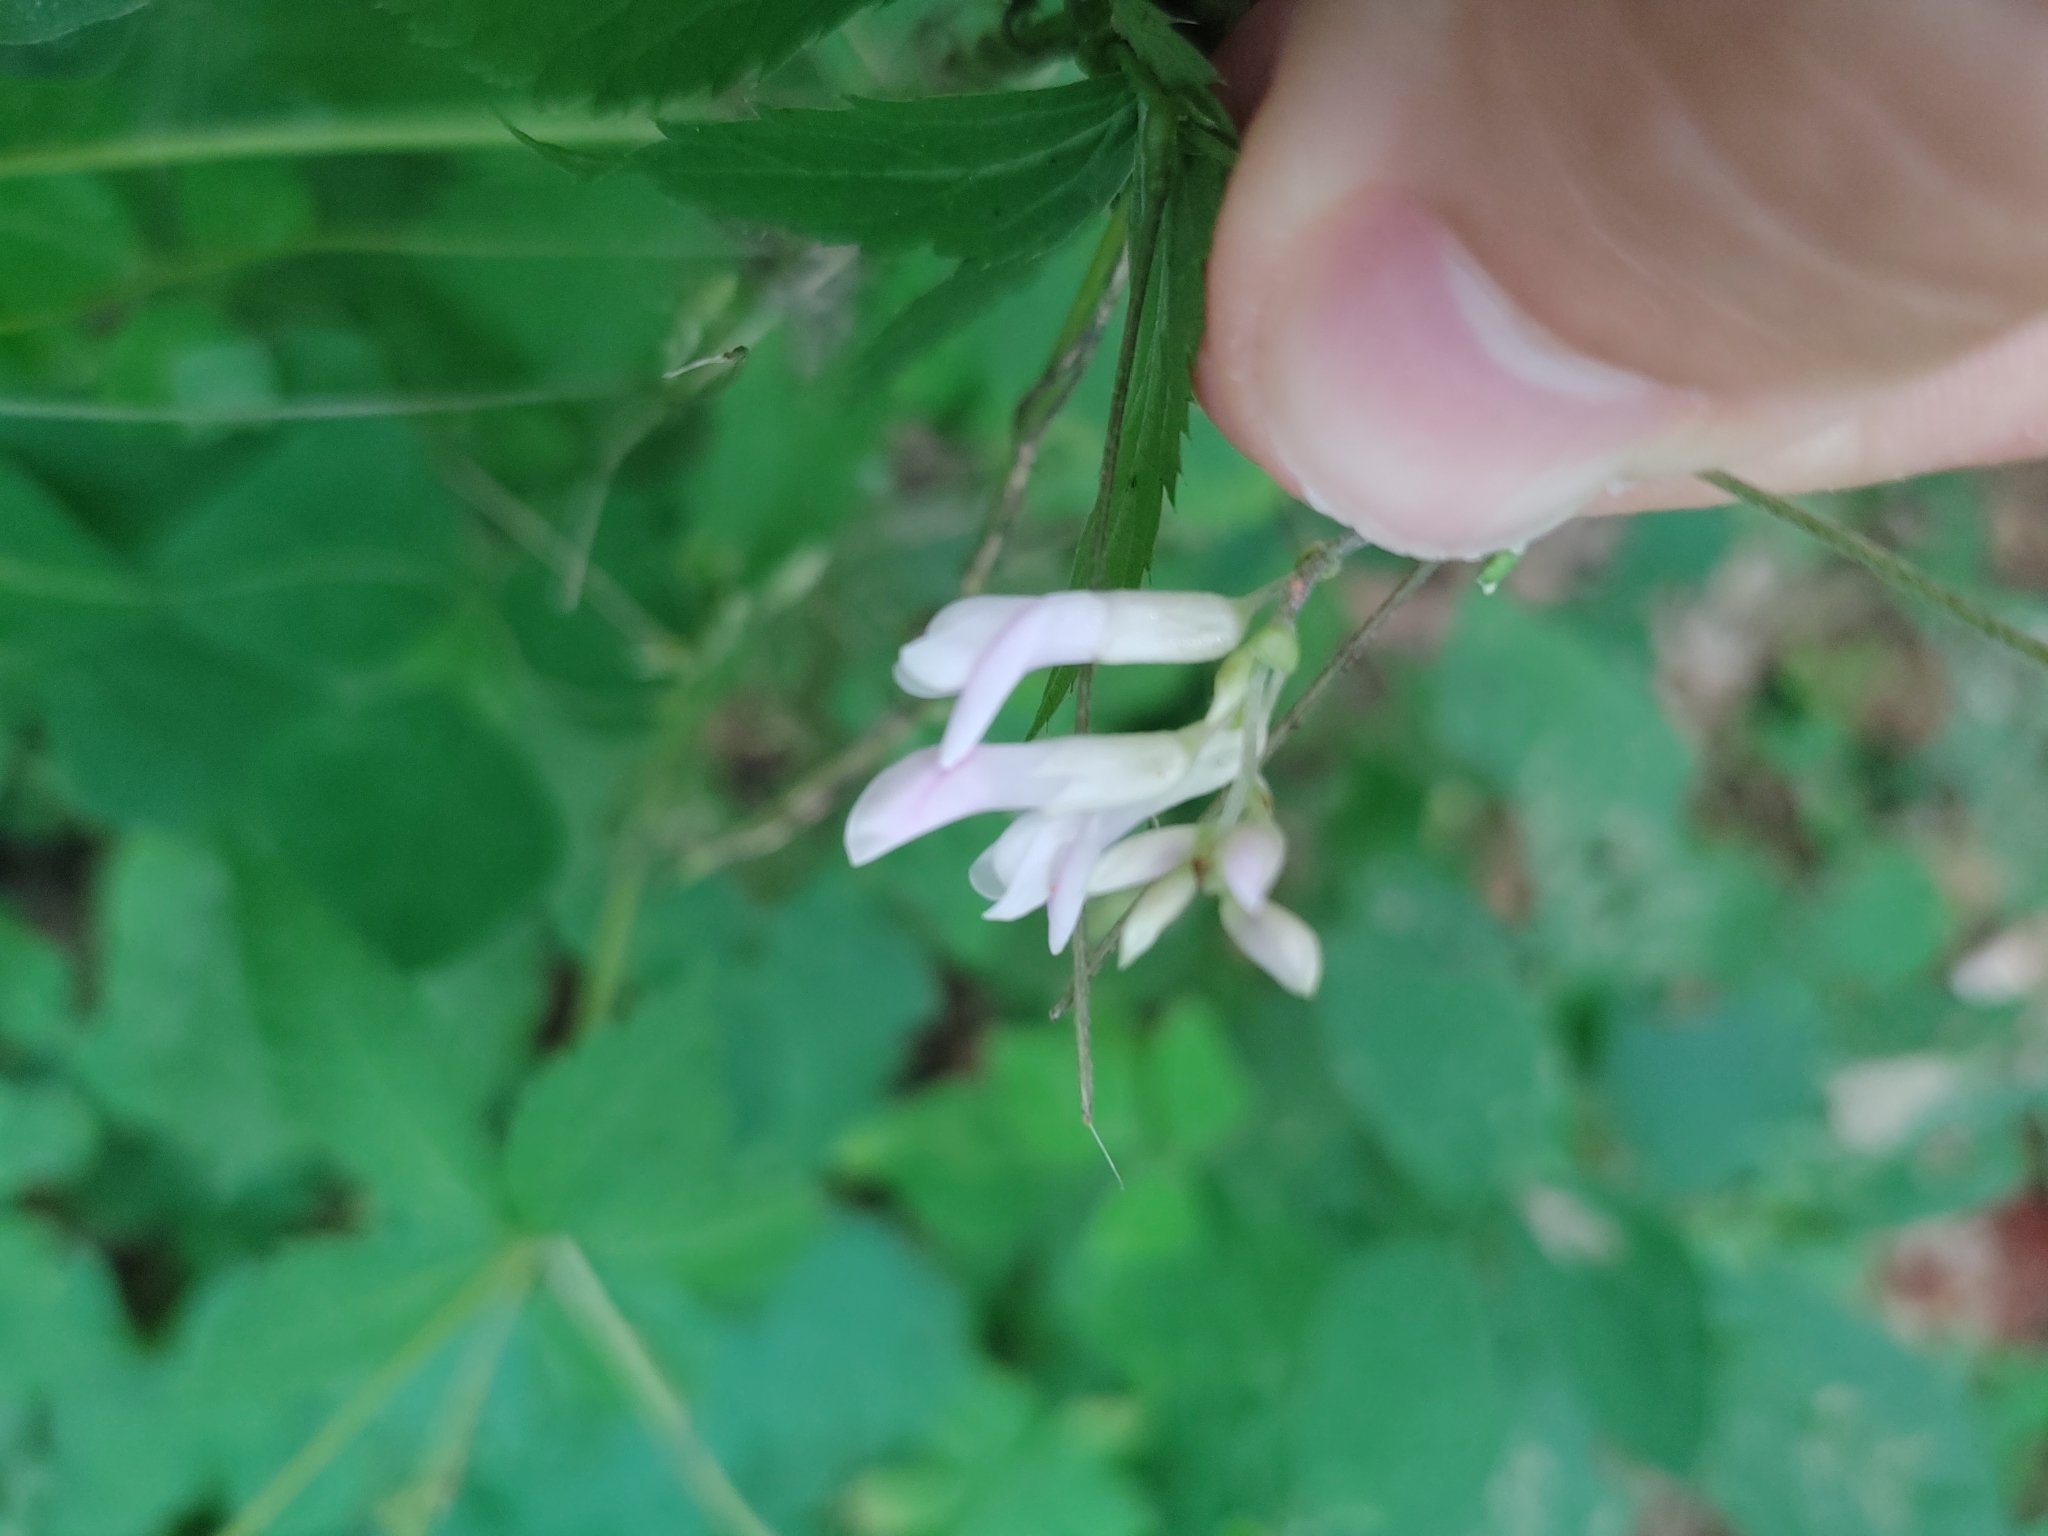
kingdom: Plantae
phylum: Tracheophyta
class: Magnoliopsida
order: Fabales
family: Fabaceae
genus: Amphicarpaea
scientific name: Amphicarpaea bracteata
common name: American hog peanut
